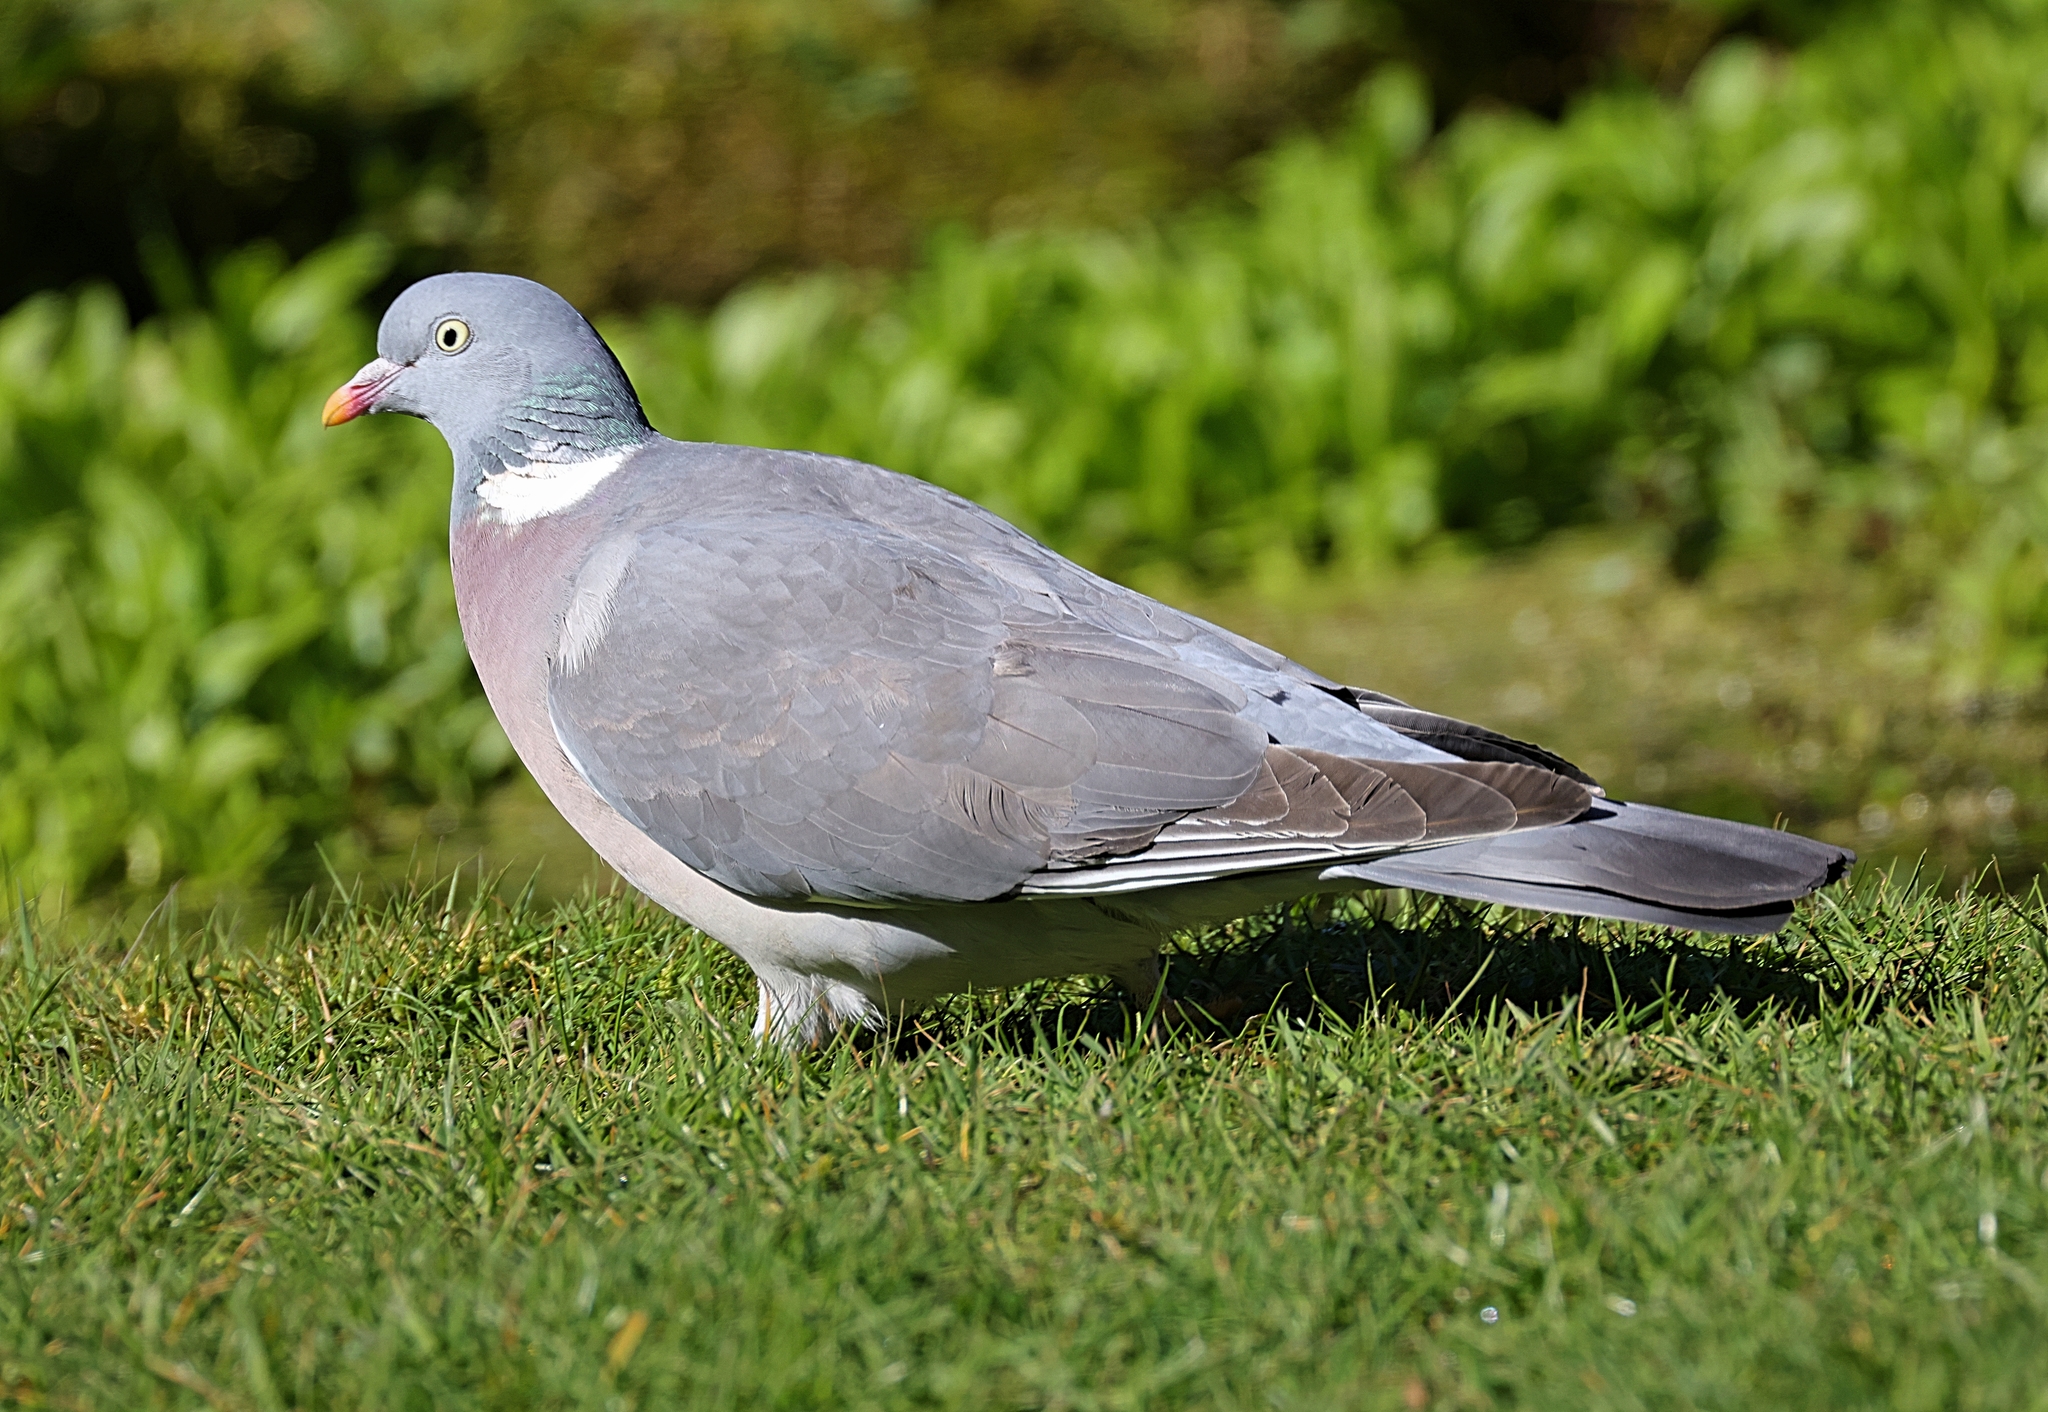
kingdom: Animalia
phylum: Chordata
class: Aves
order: Columbiformes
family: Columbidae
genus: Columba
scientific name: Columba palumbus
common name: Common wood pigeon
